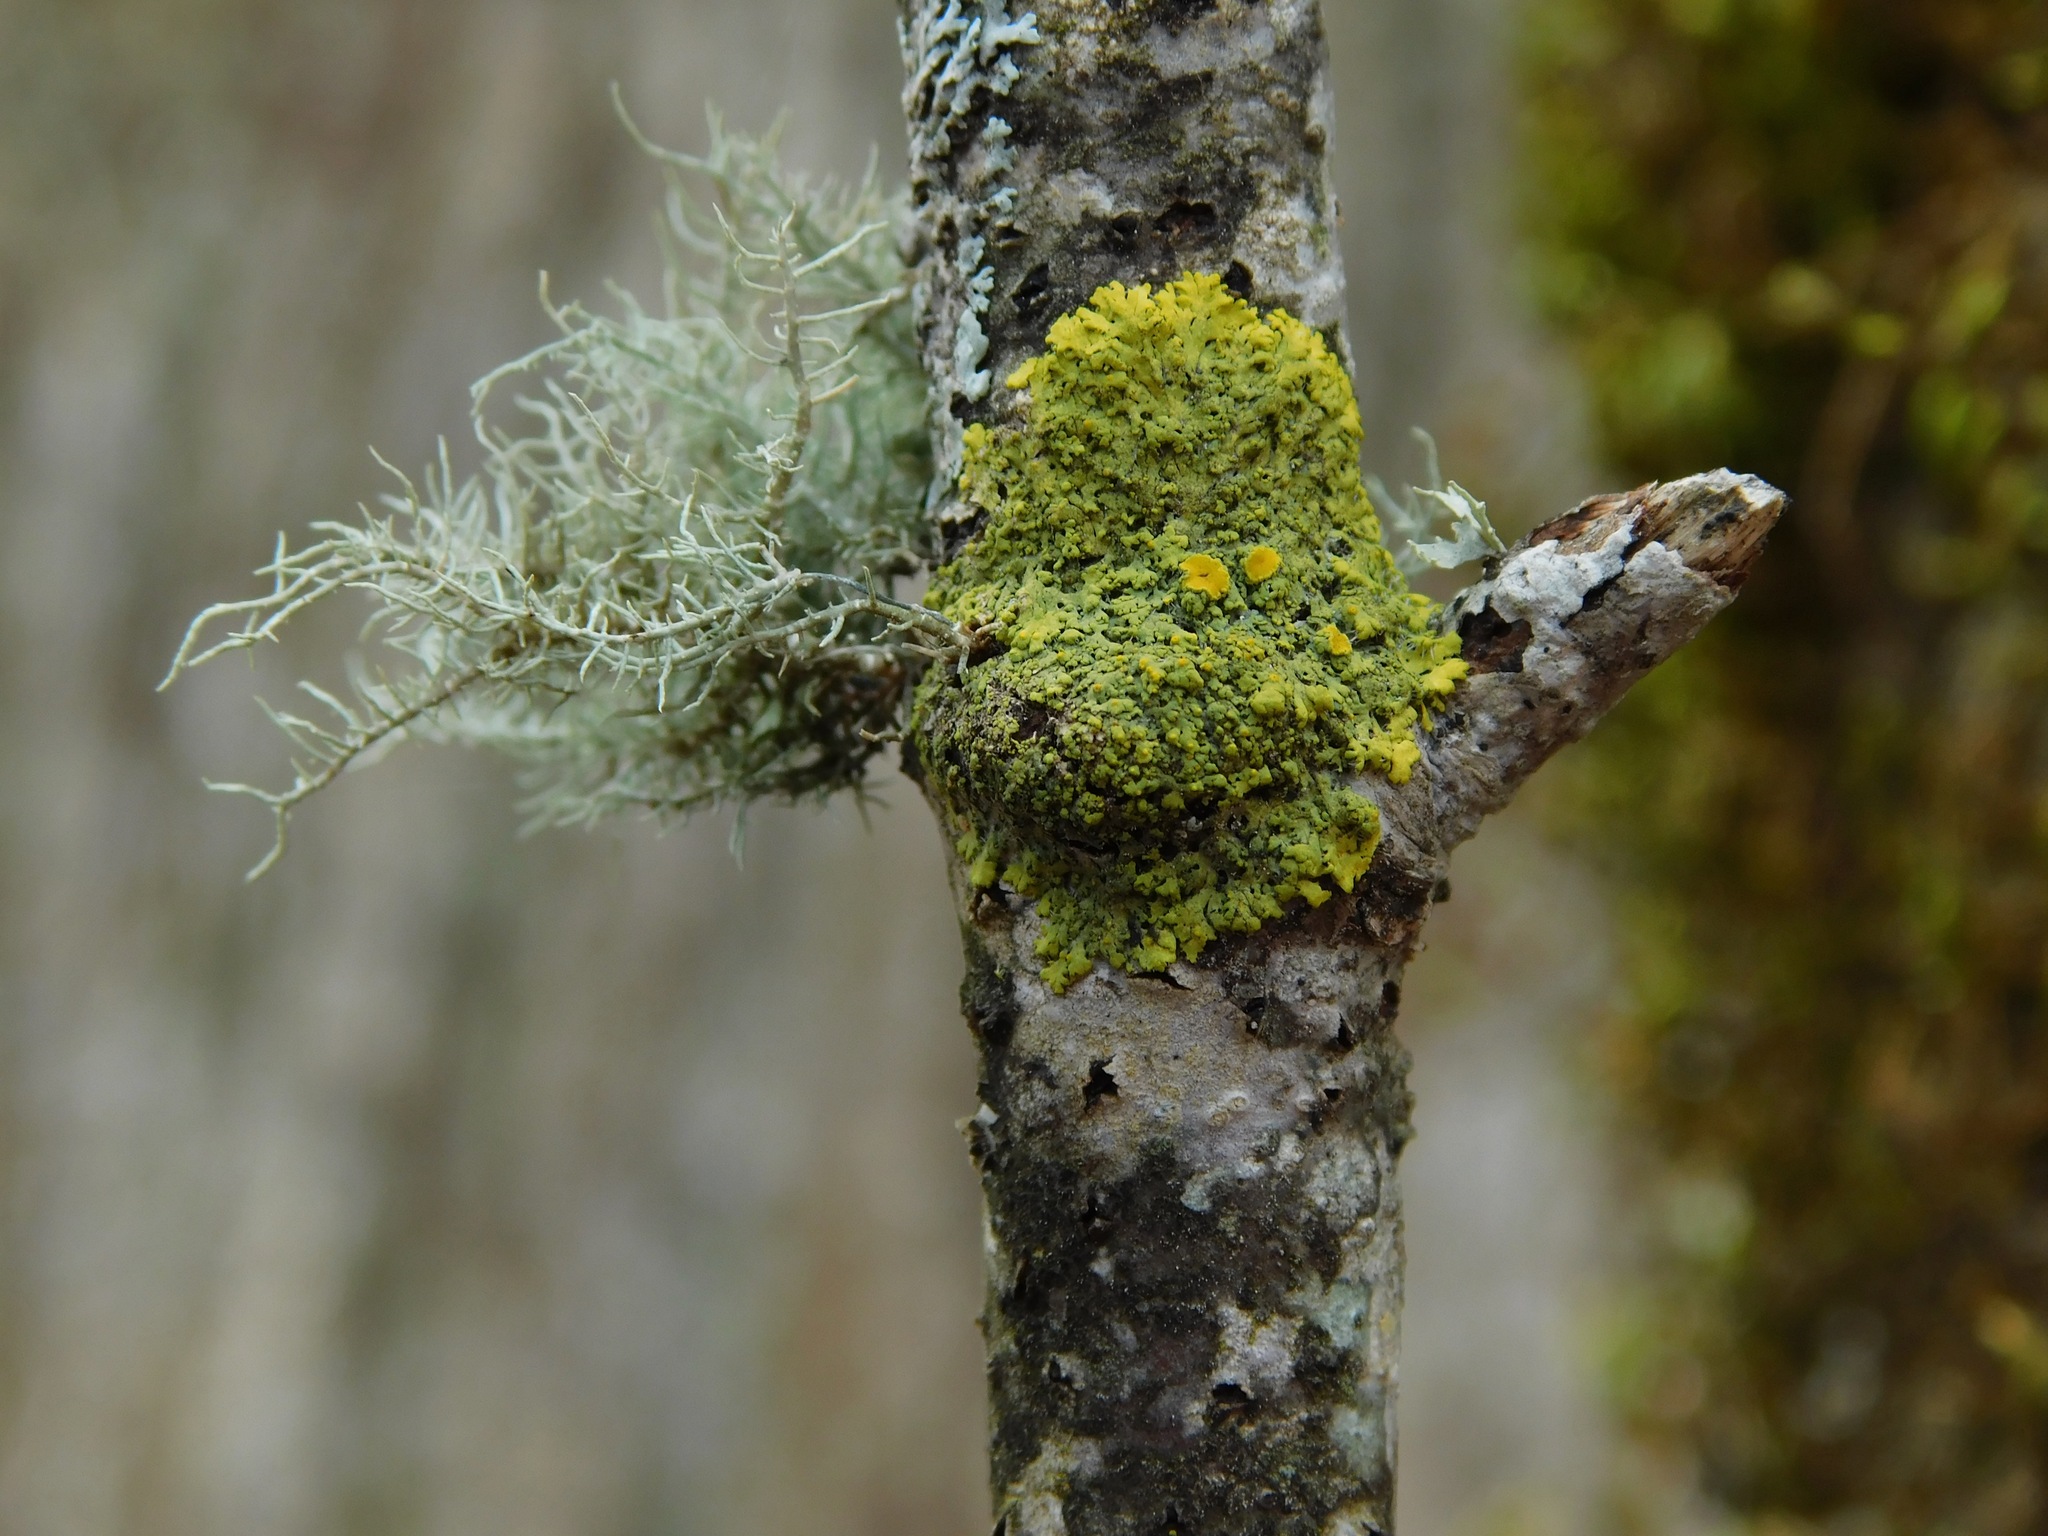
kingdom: Fungi
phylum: Ascomycota
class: Lecanoromycetes
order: Teloschistales
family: Teloschistaceae
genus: Gallowayella
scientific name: Gallowayella hasseana
